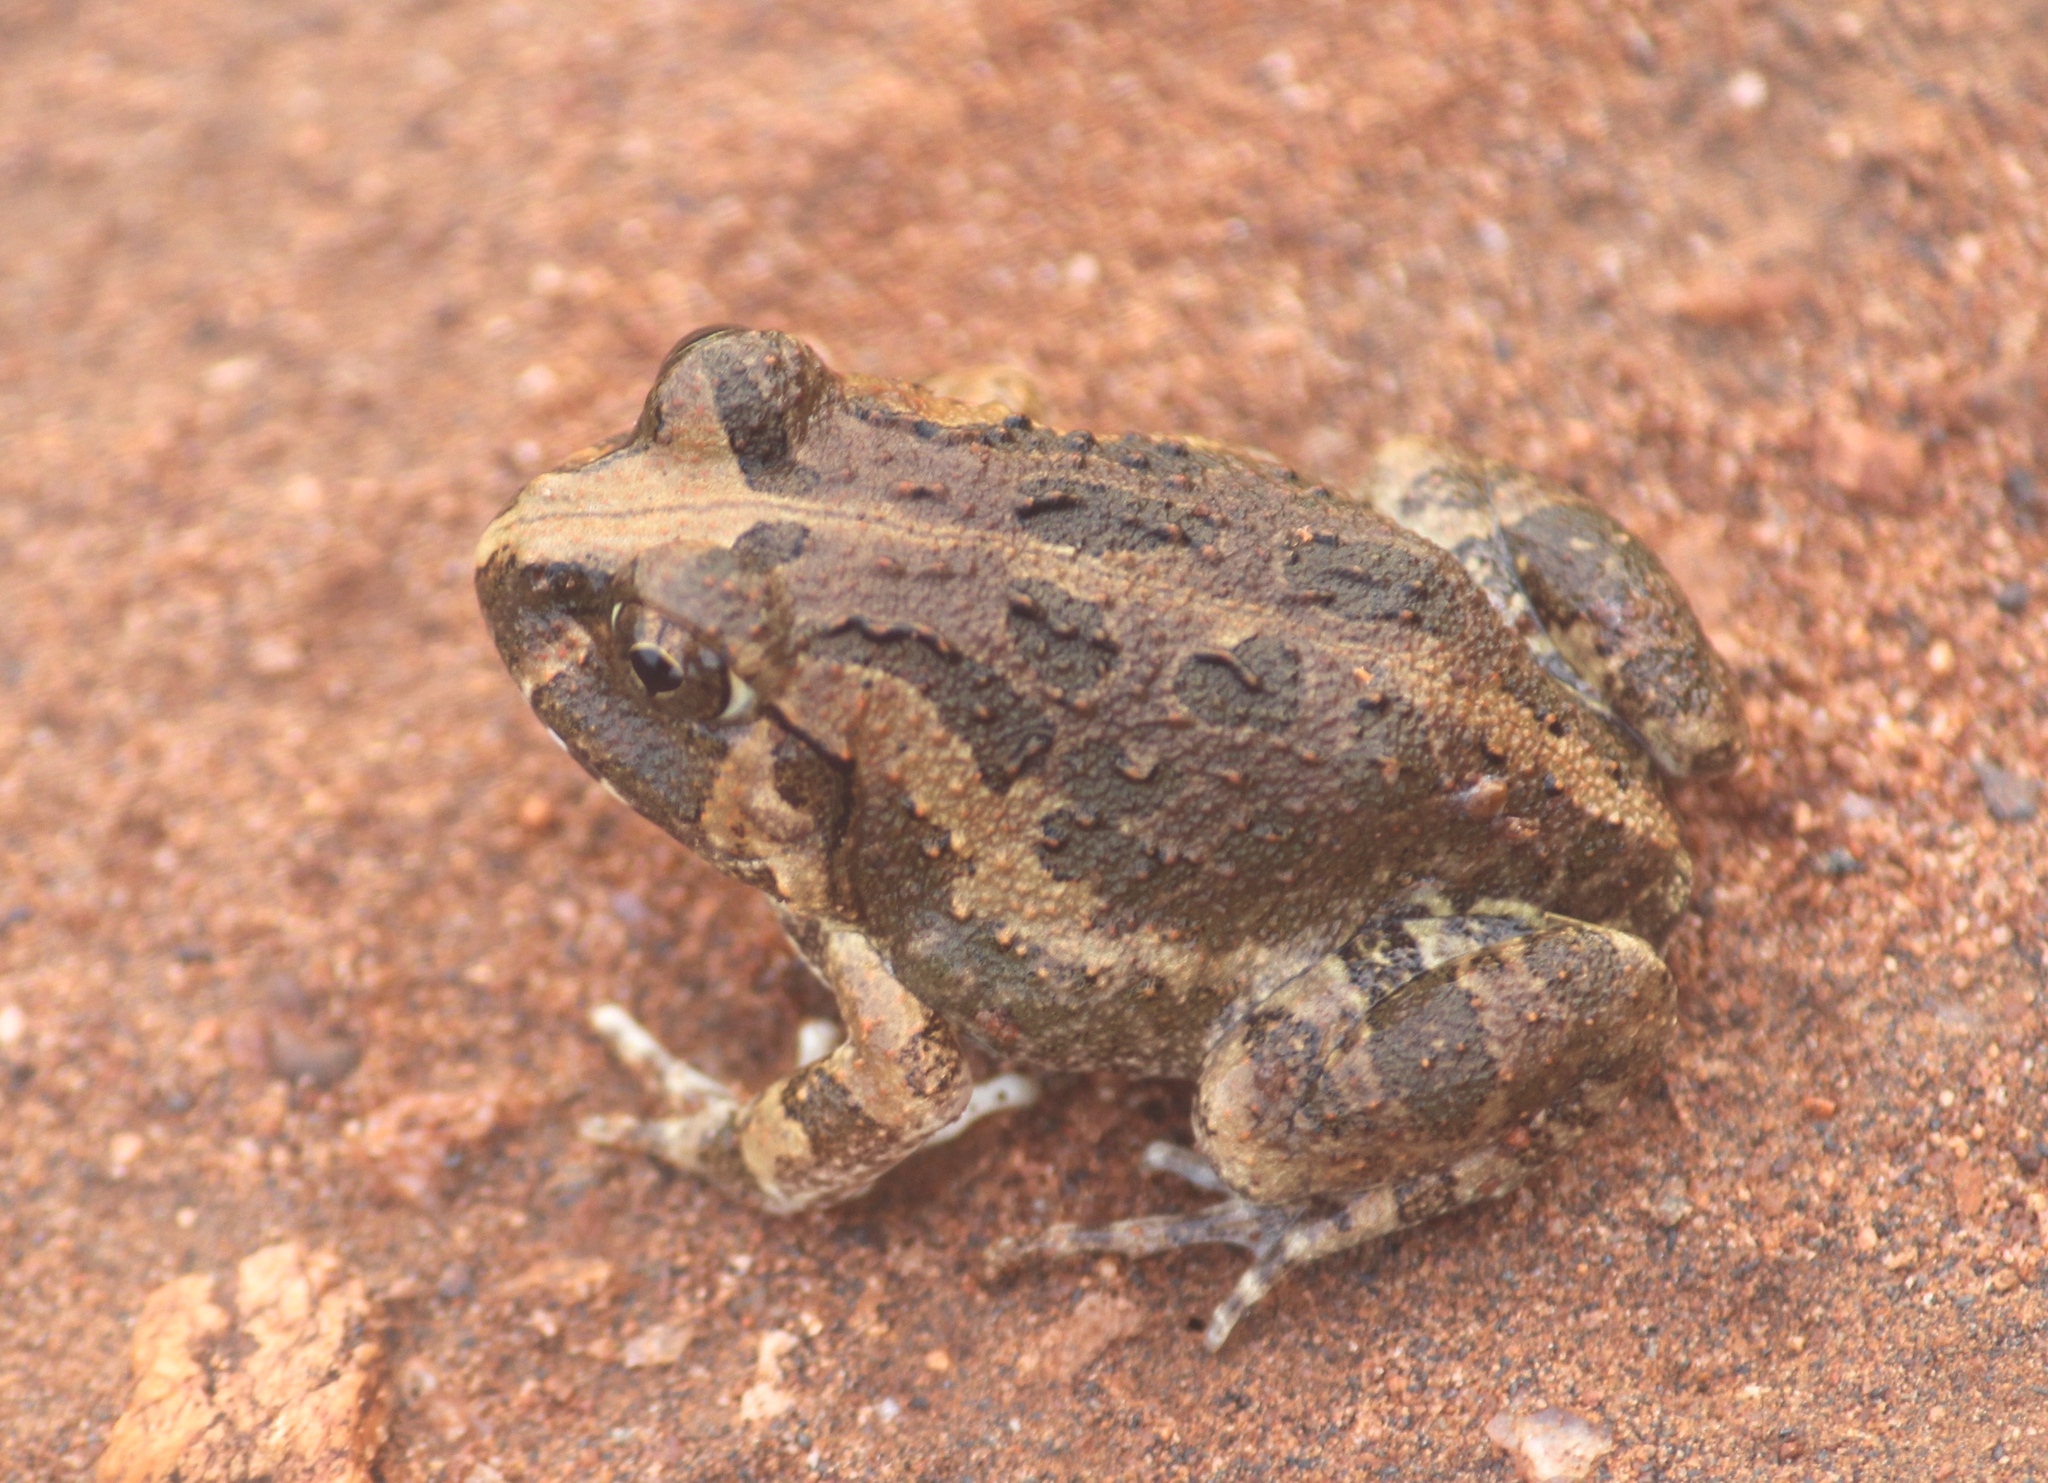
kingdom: Animalia
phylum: Chordata
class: Amphibia
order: Anura
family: Dicroglossidae
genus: Sphaerotheca
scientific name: Sphaerotheca breviceps
